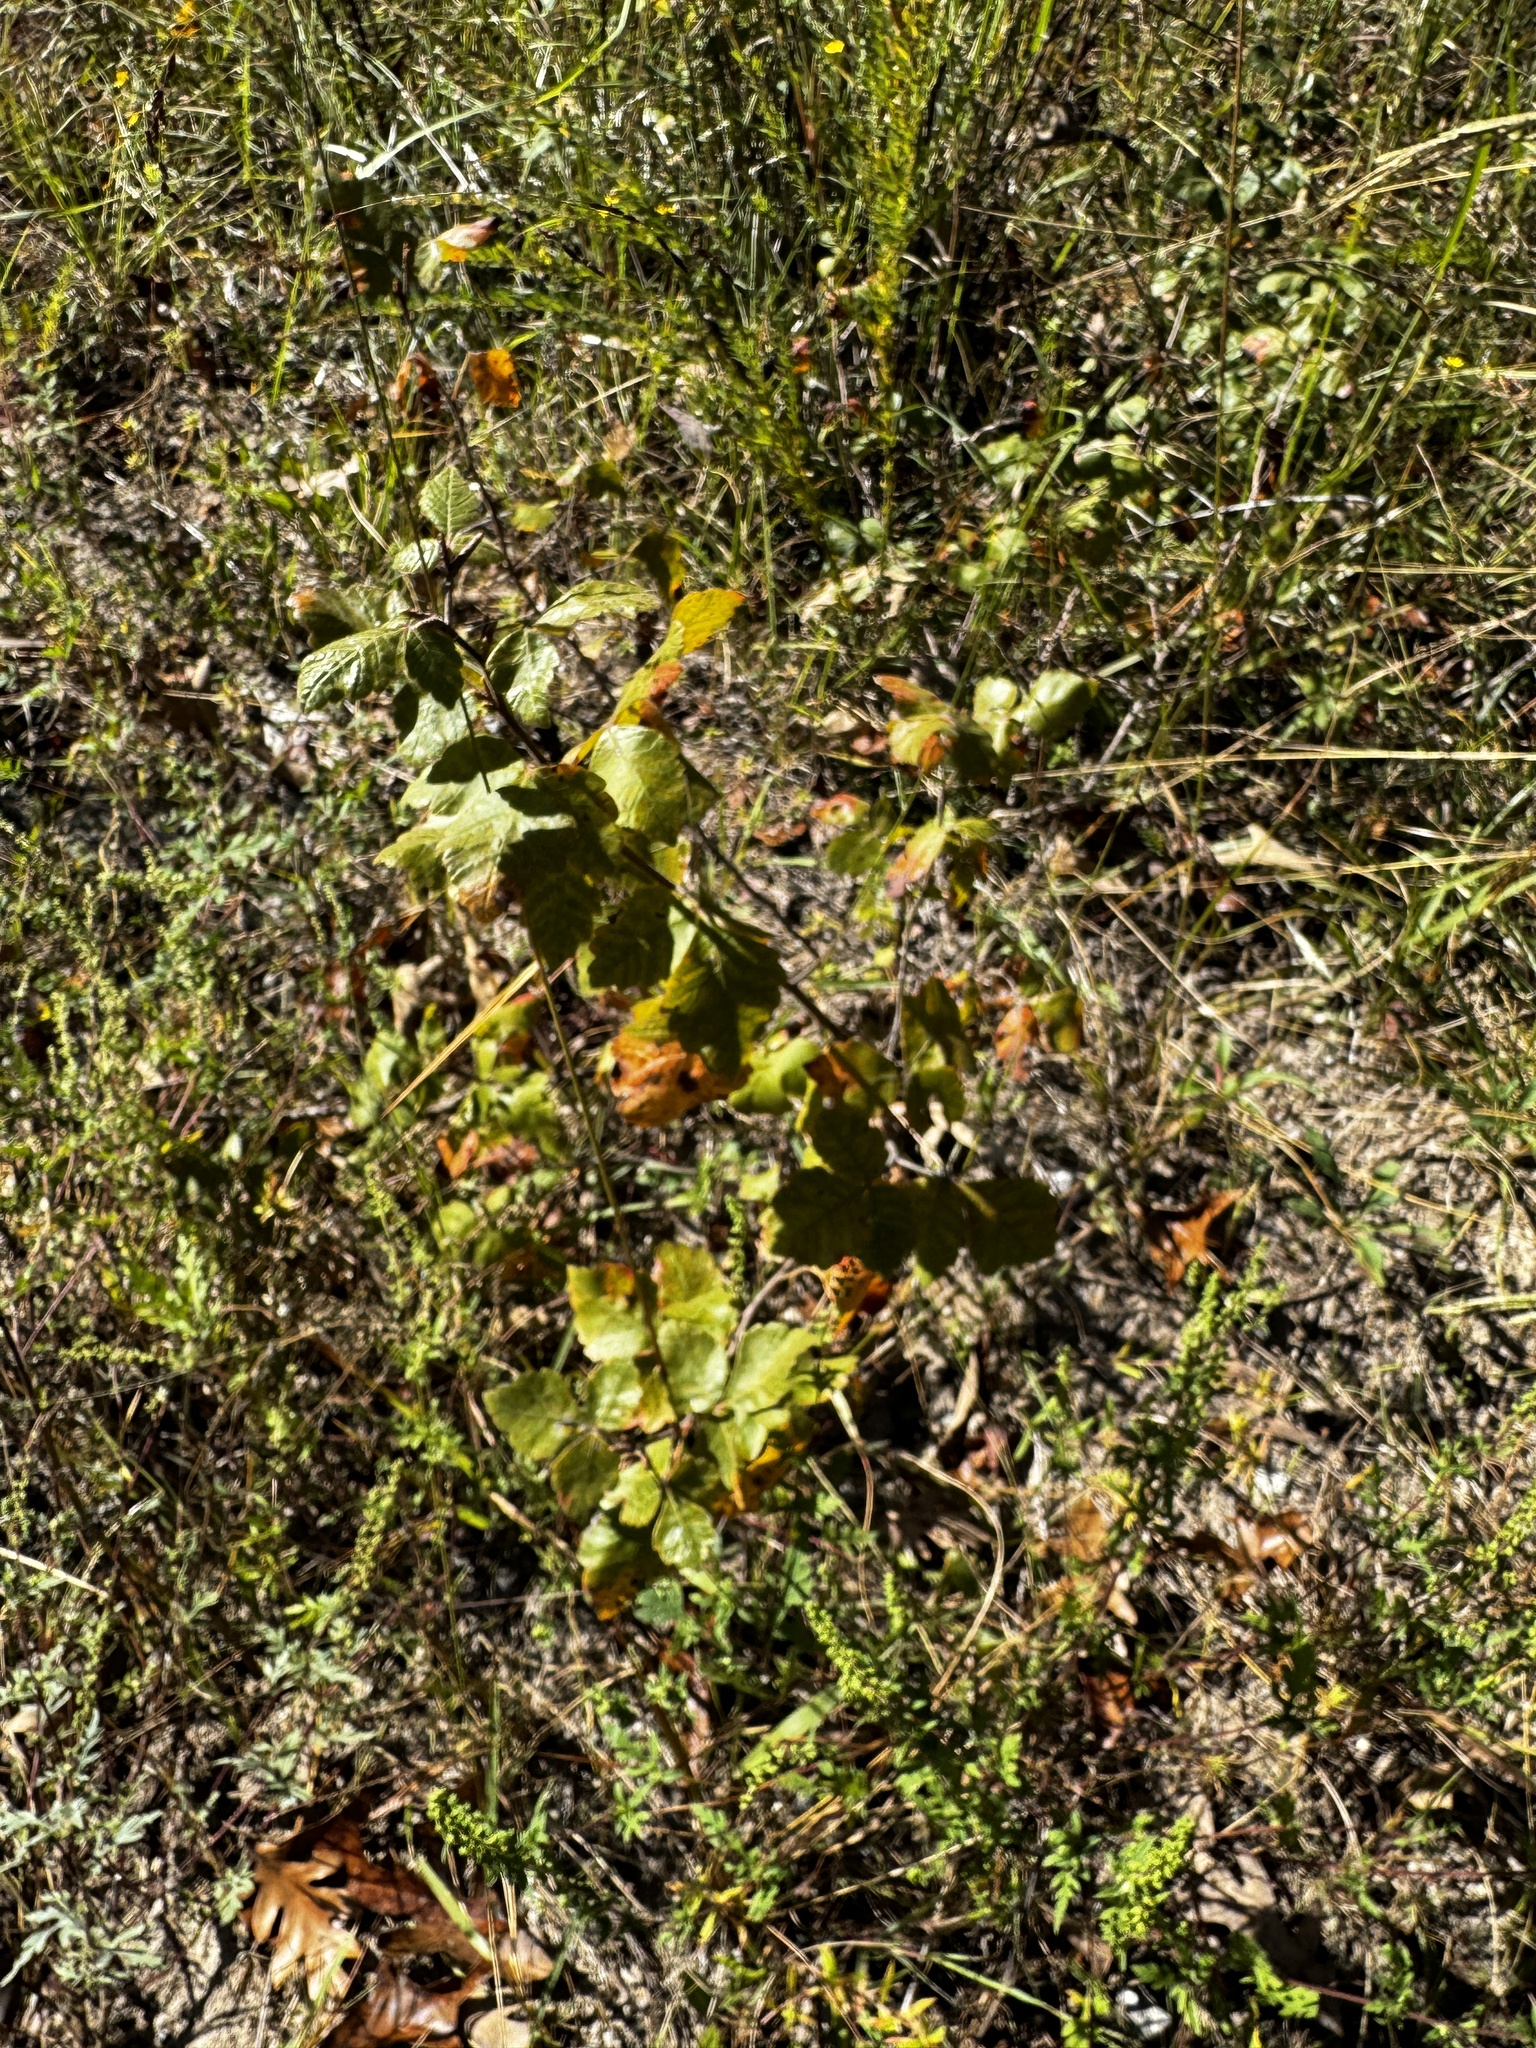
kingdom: Plantae
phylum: Tracheophyta
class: Magnoliopsida
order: Sapindales
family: Anacardiaceae
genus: Rhus
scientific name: Rhus aromatica
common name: Aromatic sumac
